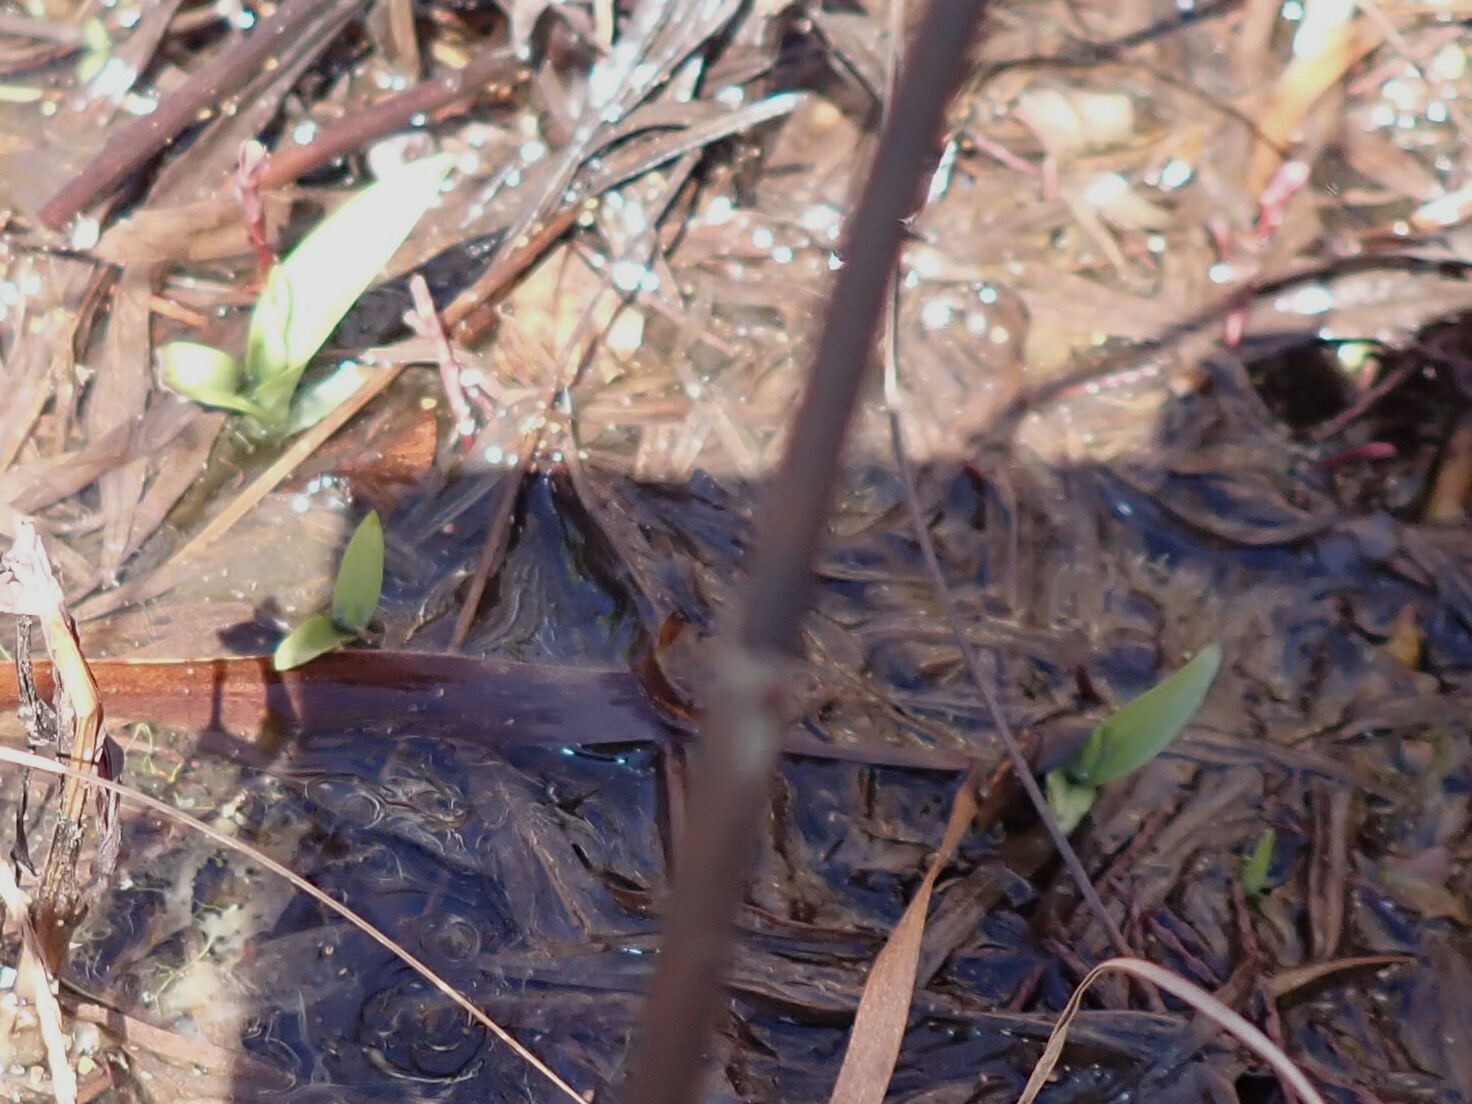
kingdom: Plantae
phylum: Tracheophyta
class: Liliopsida
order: Asparagales
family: Orchidaceae
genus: Habenaria
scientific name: Habenaria repens
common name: Water orchid
